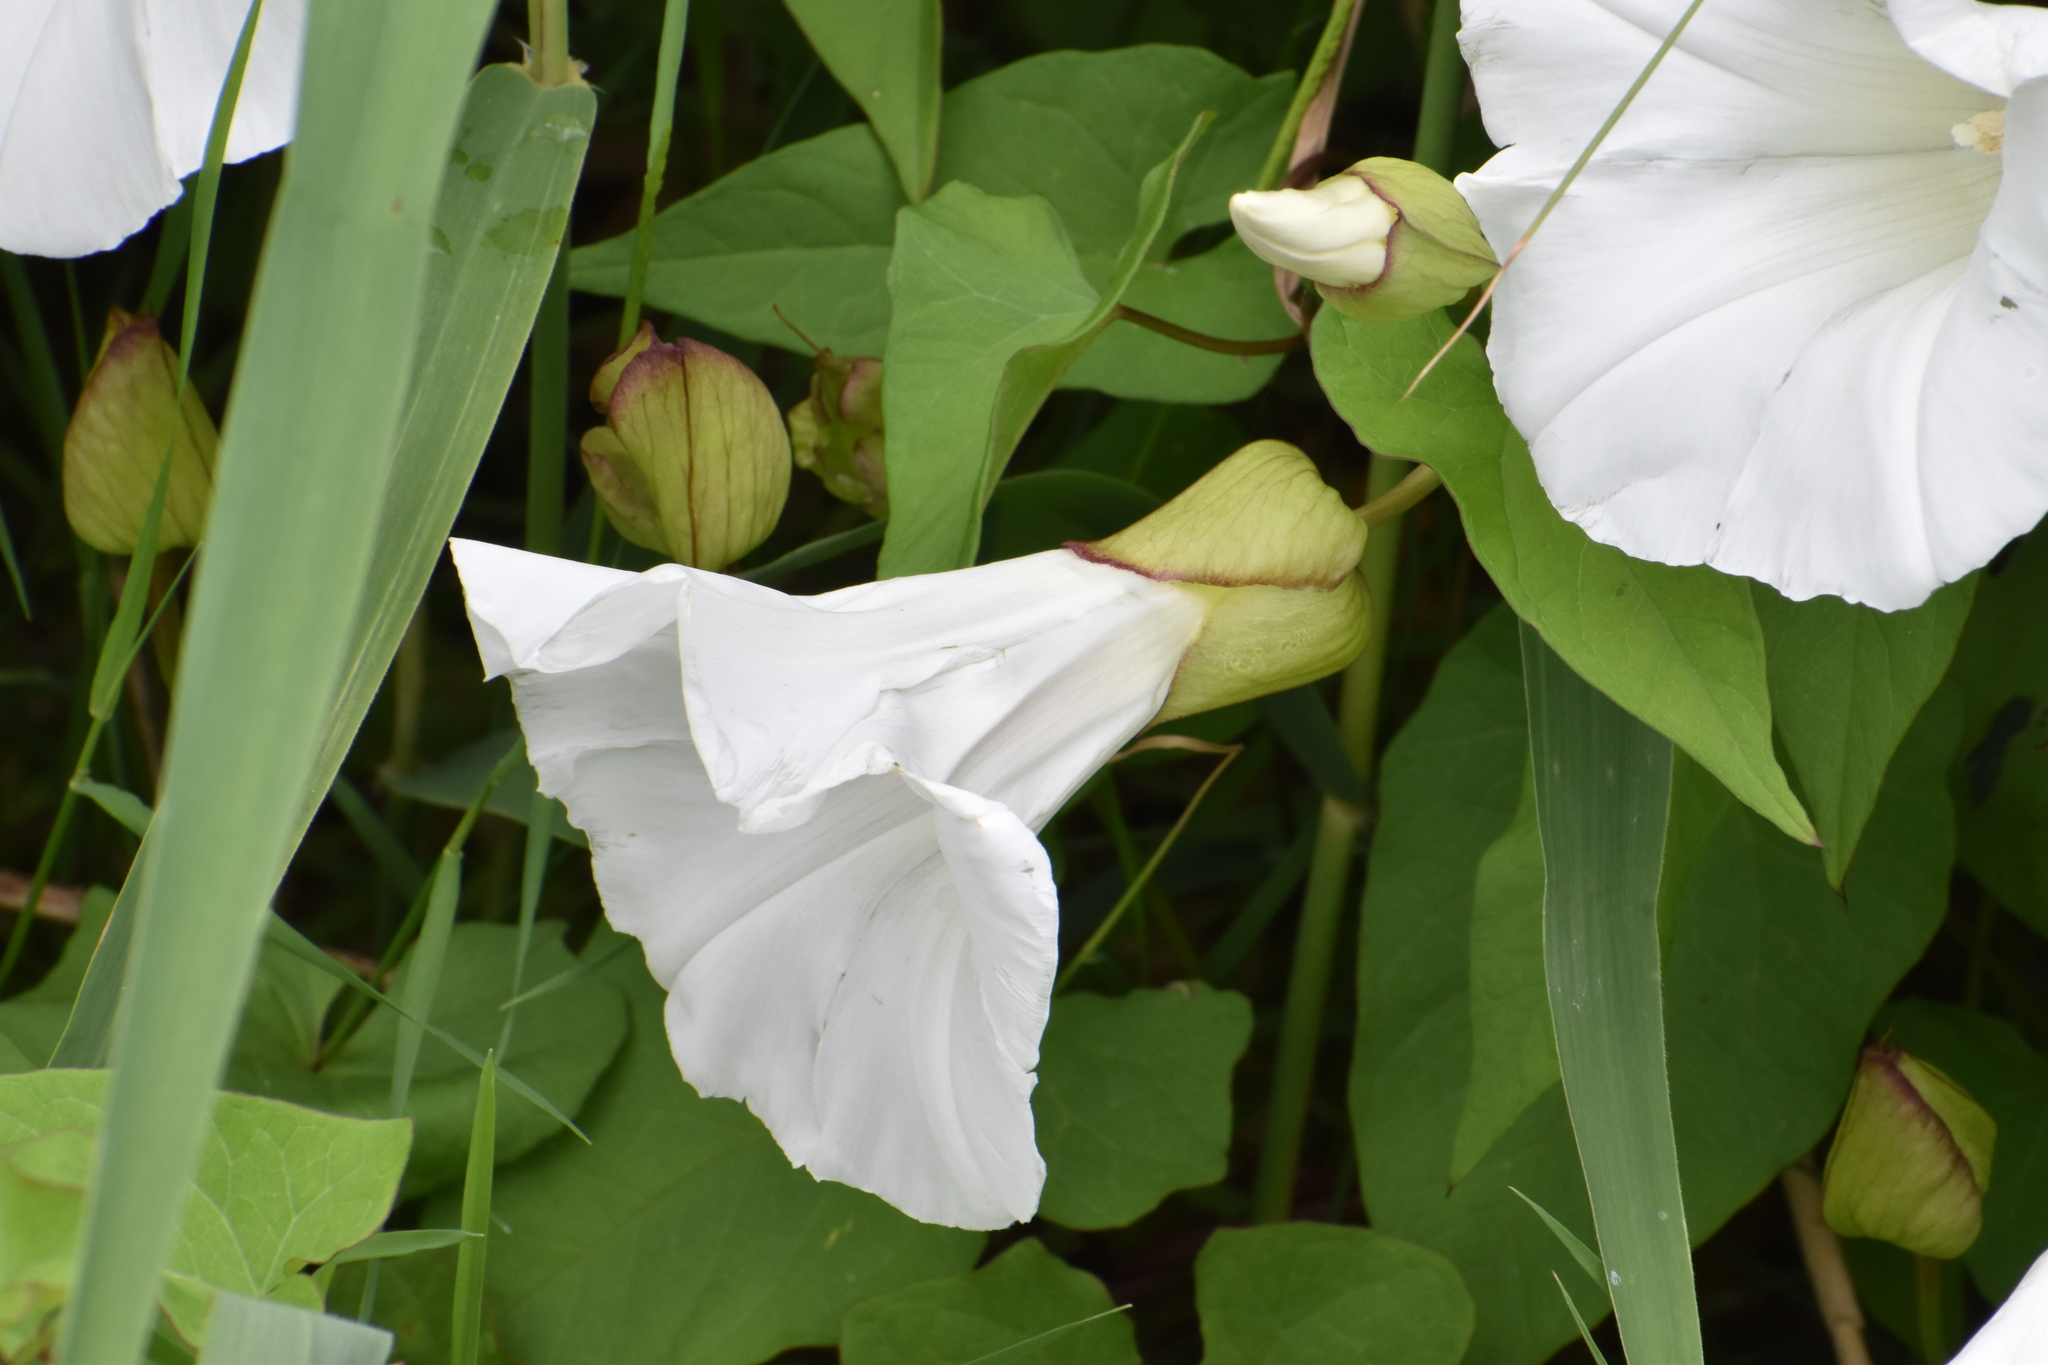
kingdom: Plantae
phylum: Tracheophyta
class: Magnoliopsida
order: Solanales
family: Convolvulaceae
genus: Calystegia
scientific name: Calystegia silvatica
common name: Large bindweed
